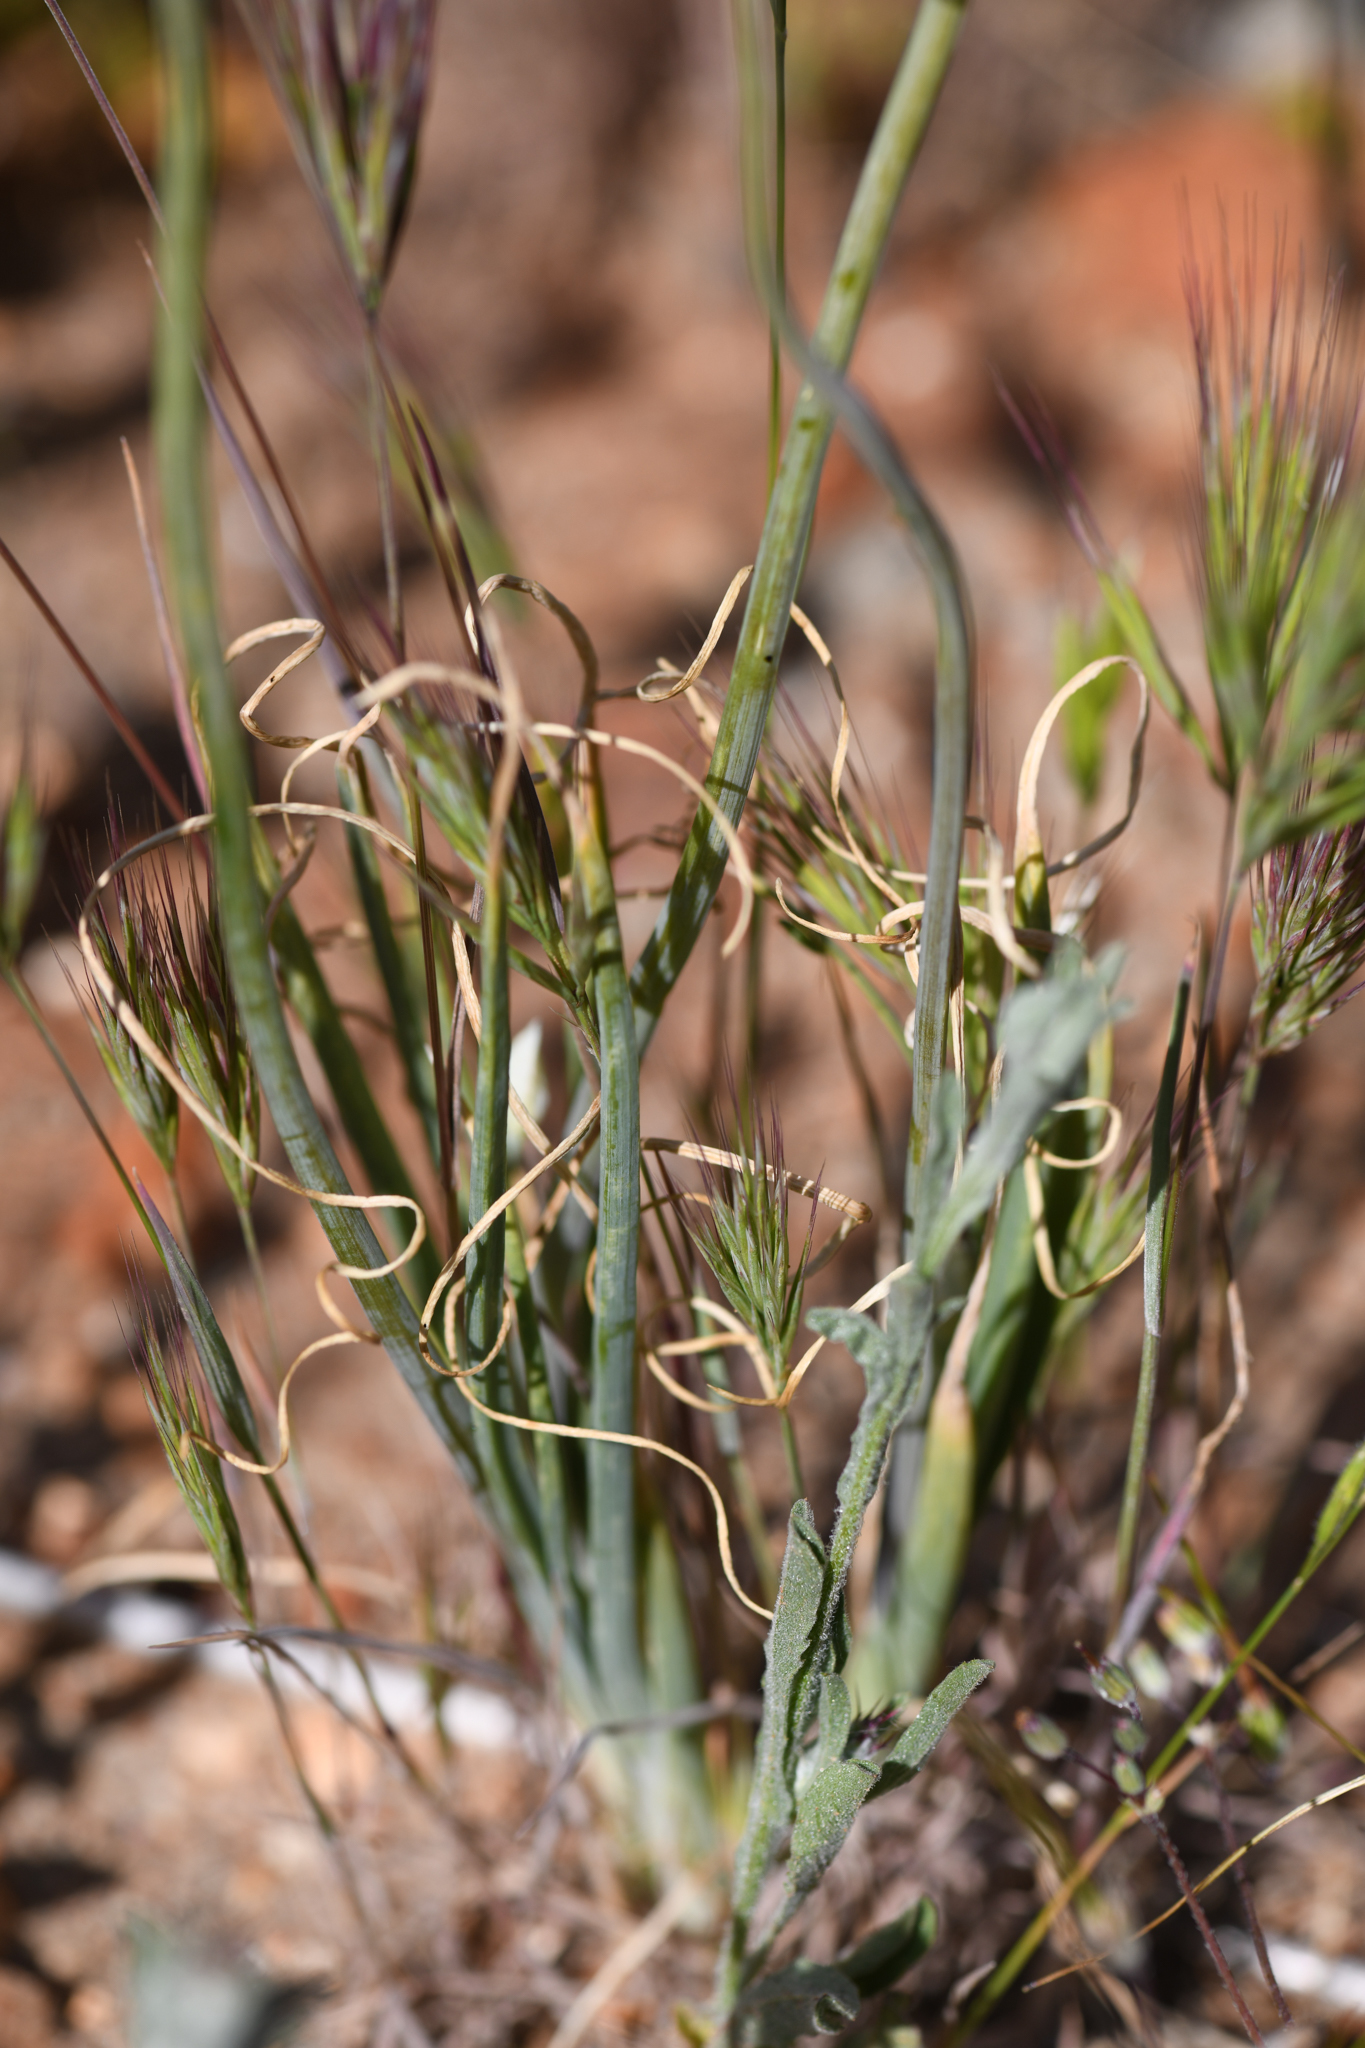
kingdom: Plantae
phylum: Tracheophyta
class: Liliopsida
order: Asparagales
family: Amaryllidaceae
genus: Allium
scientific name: Allium haematochiton
